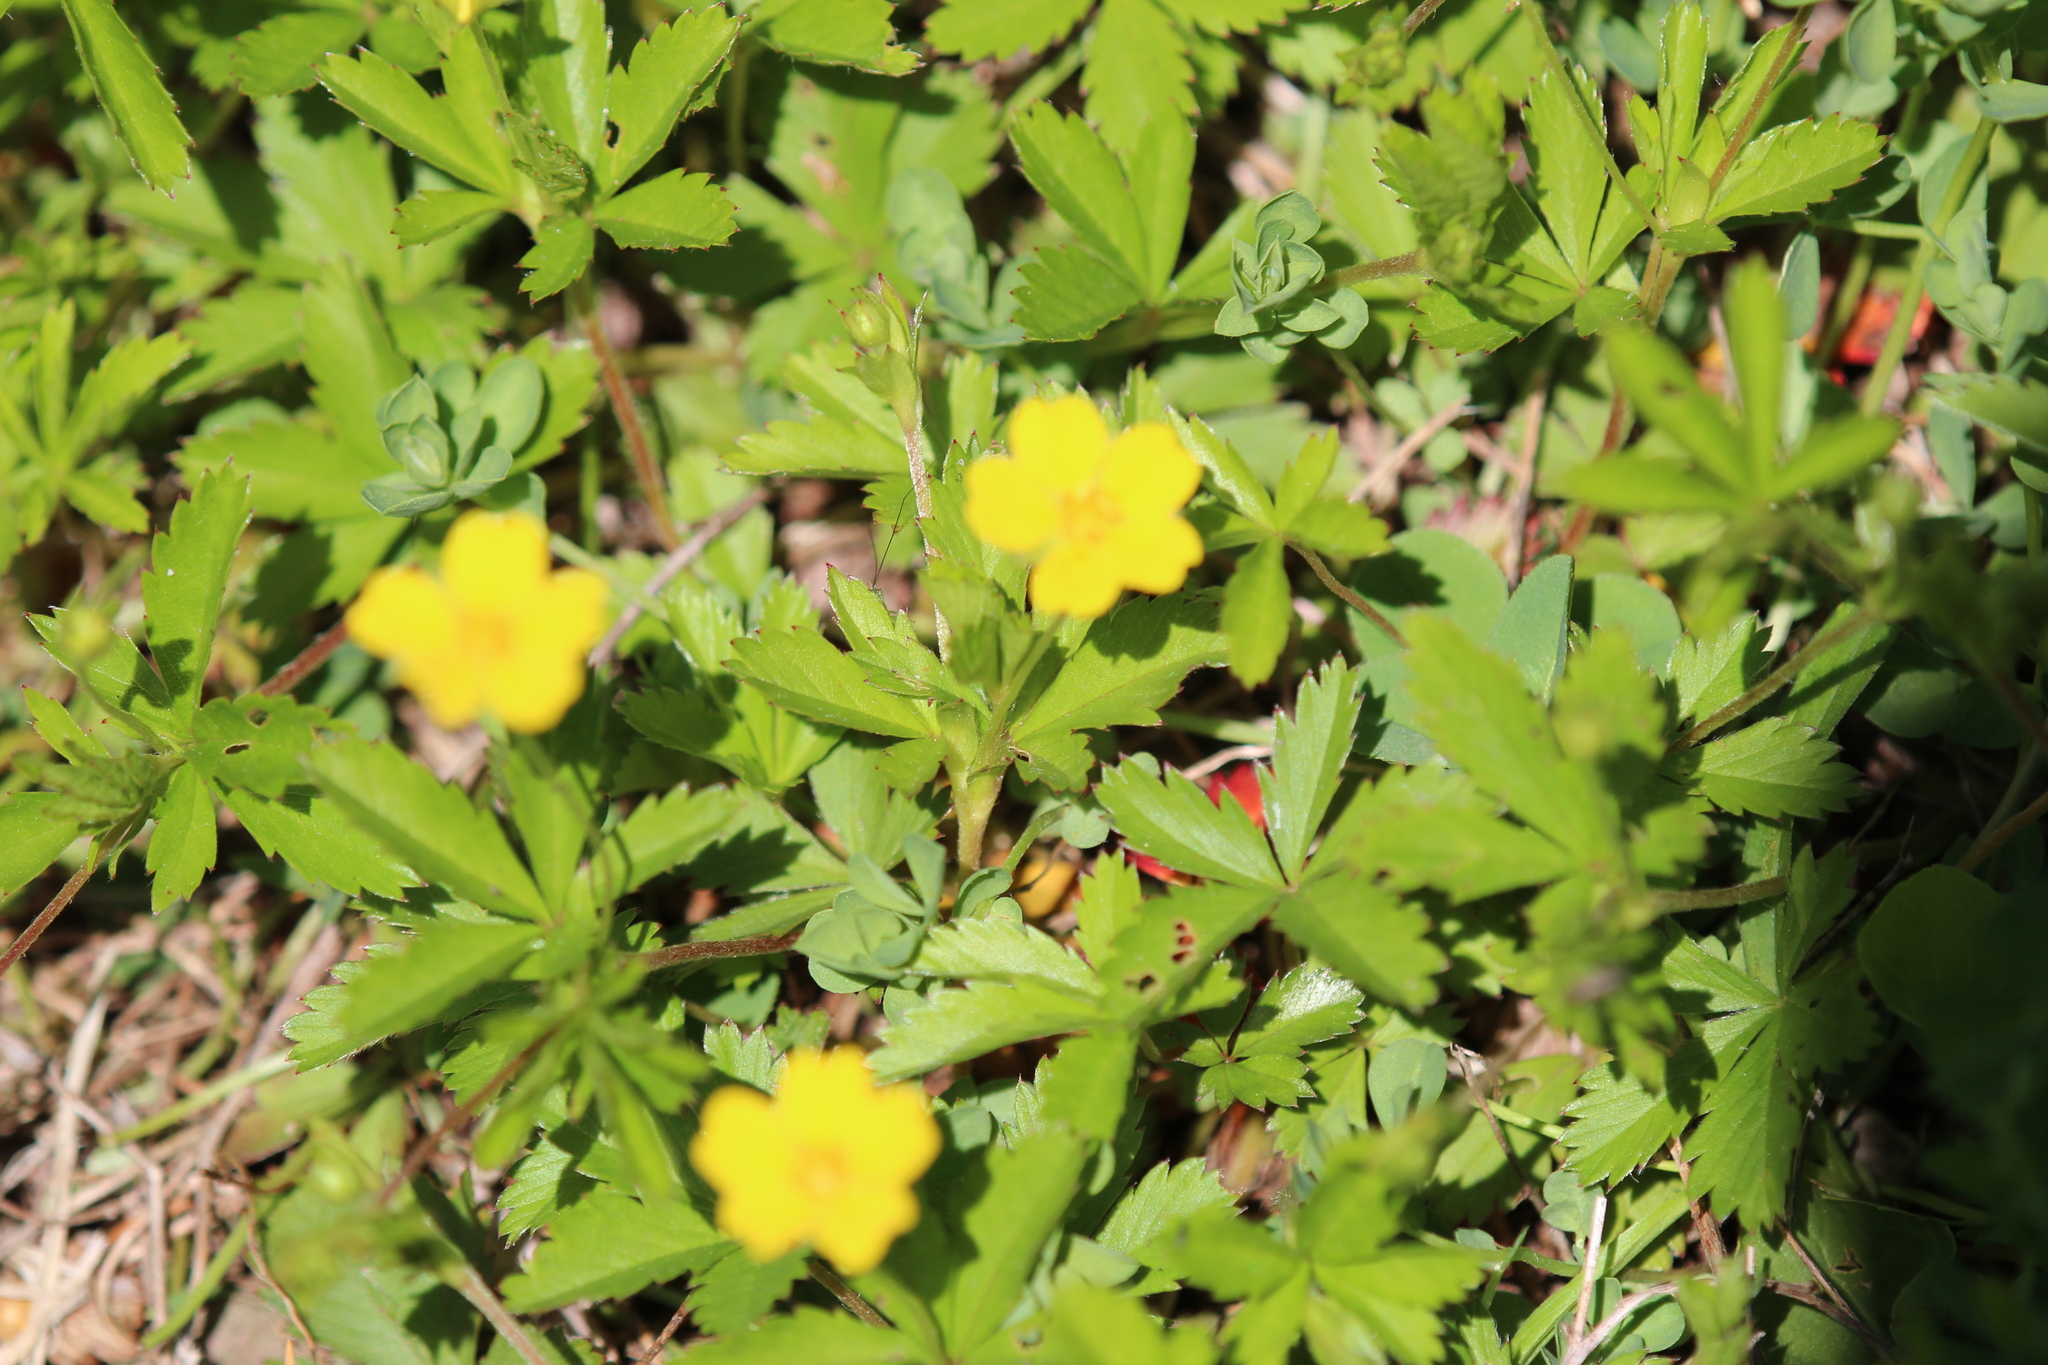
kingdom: Plantae
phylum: Tracheophyta
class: Magnoliopsida
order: Rosales
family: Rosaceae
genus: Potentilla
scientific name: Potentilla simplex
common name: Old field cinquefoil
